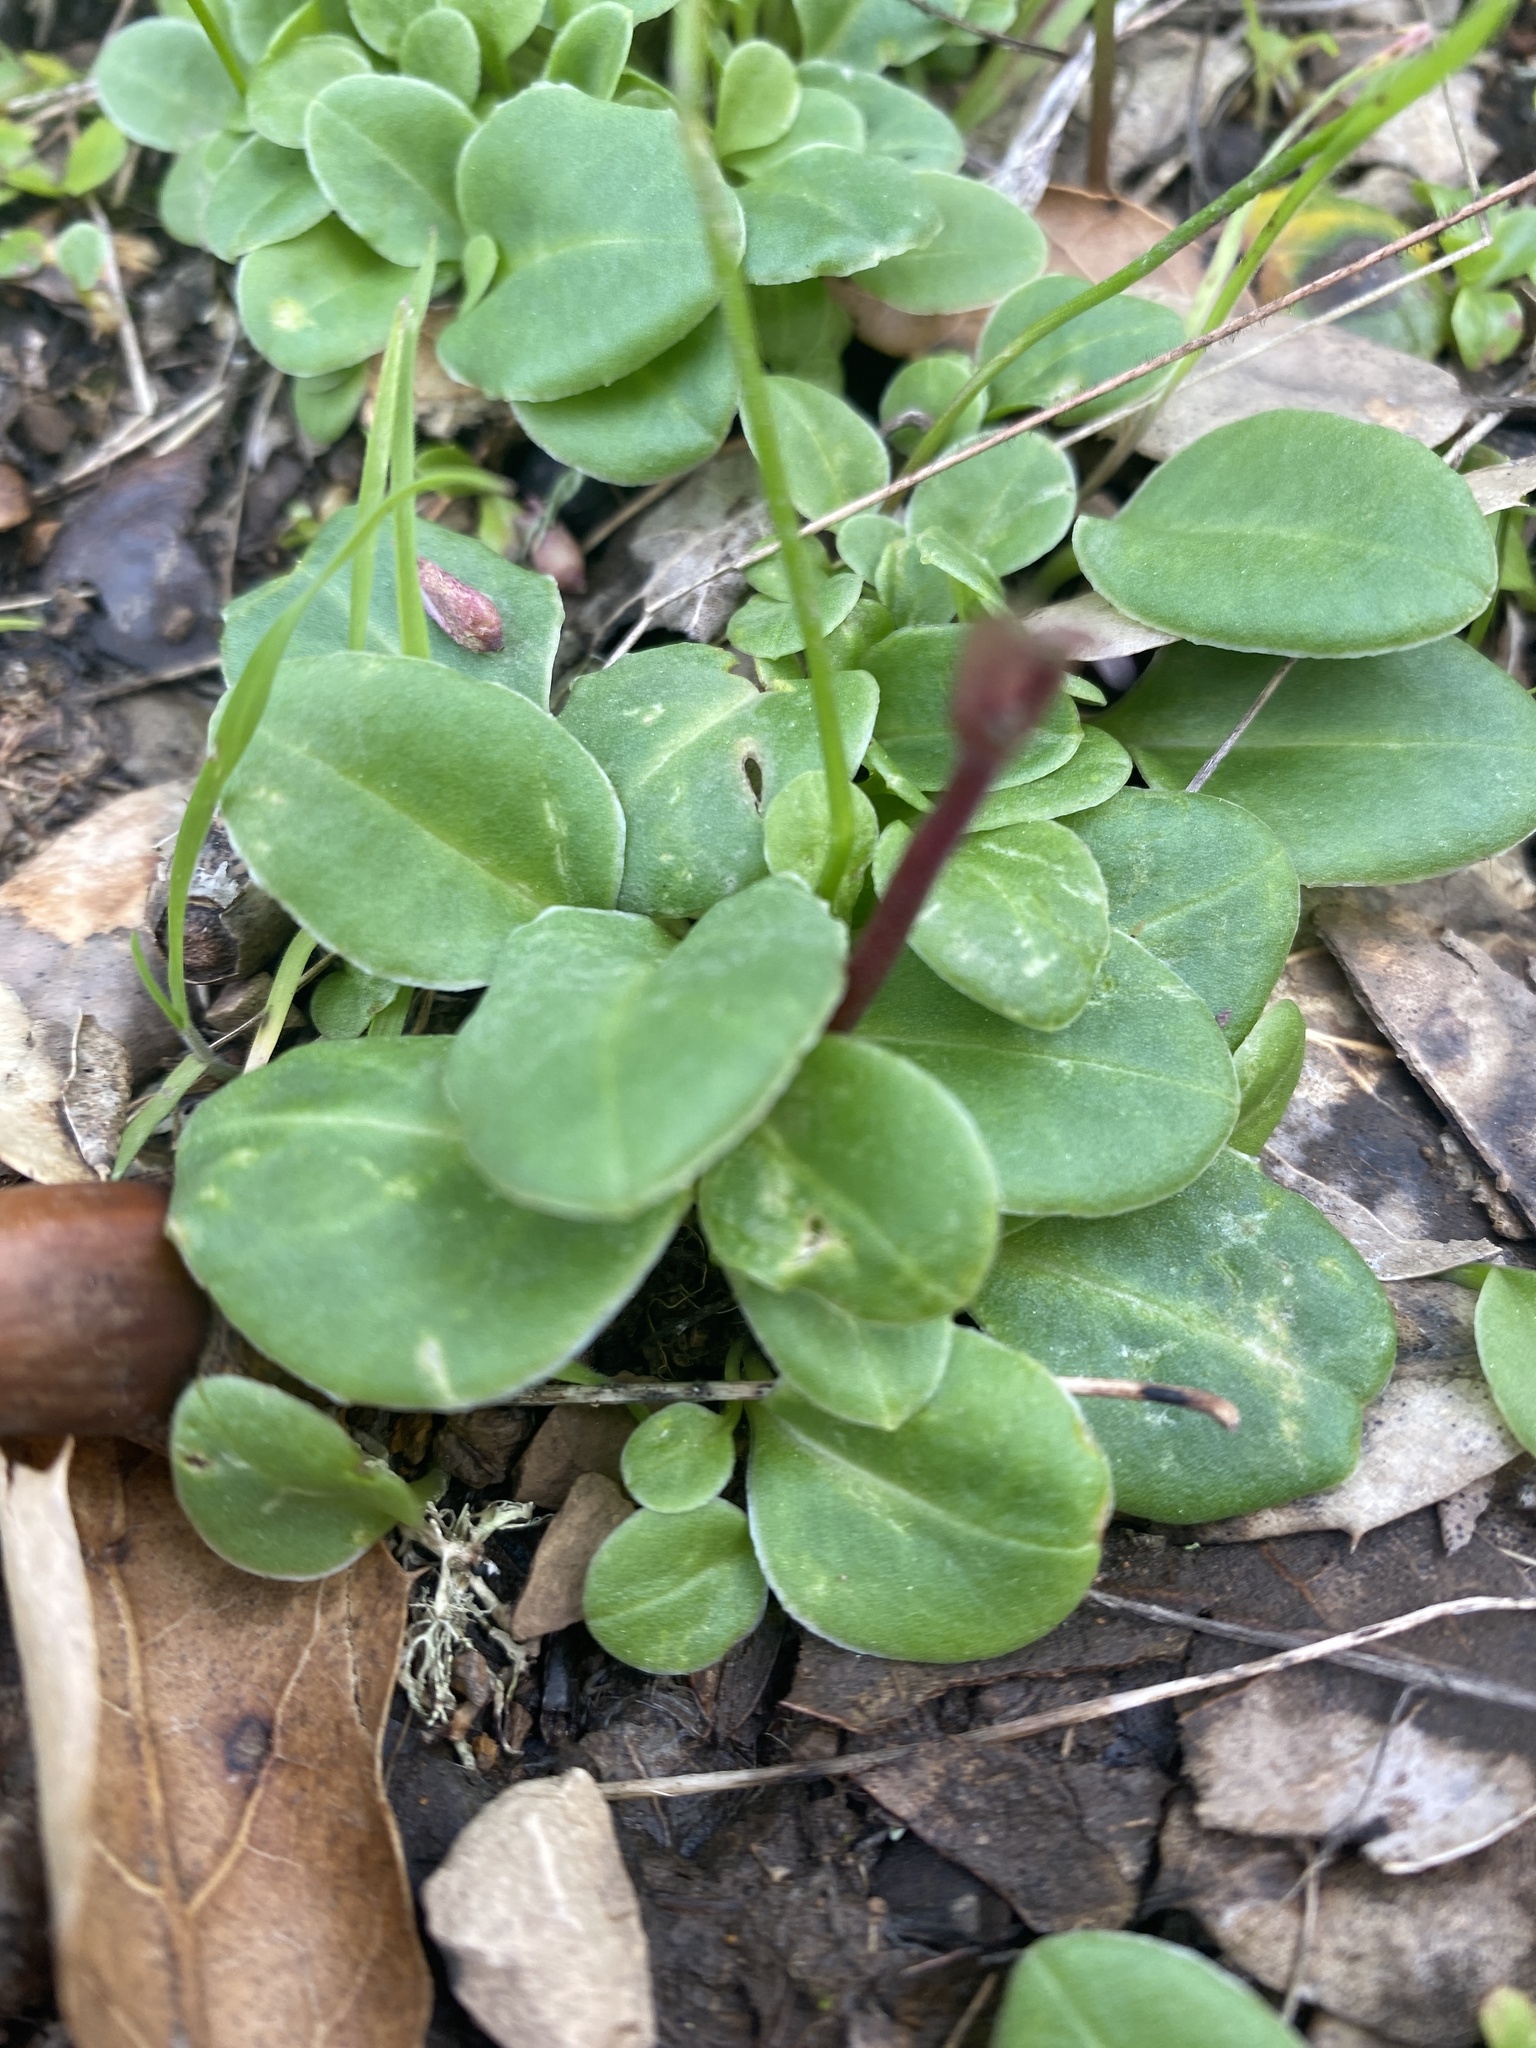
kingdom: Plantae
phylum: Tracheophyta
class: Magnoliopsida
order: Ericales
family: Primulaceae
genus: Dodecatheon
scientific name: Dodecatheon hendersonii
